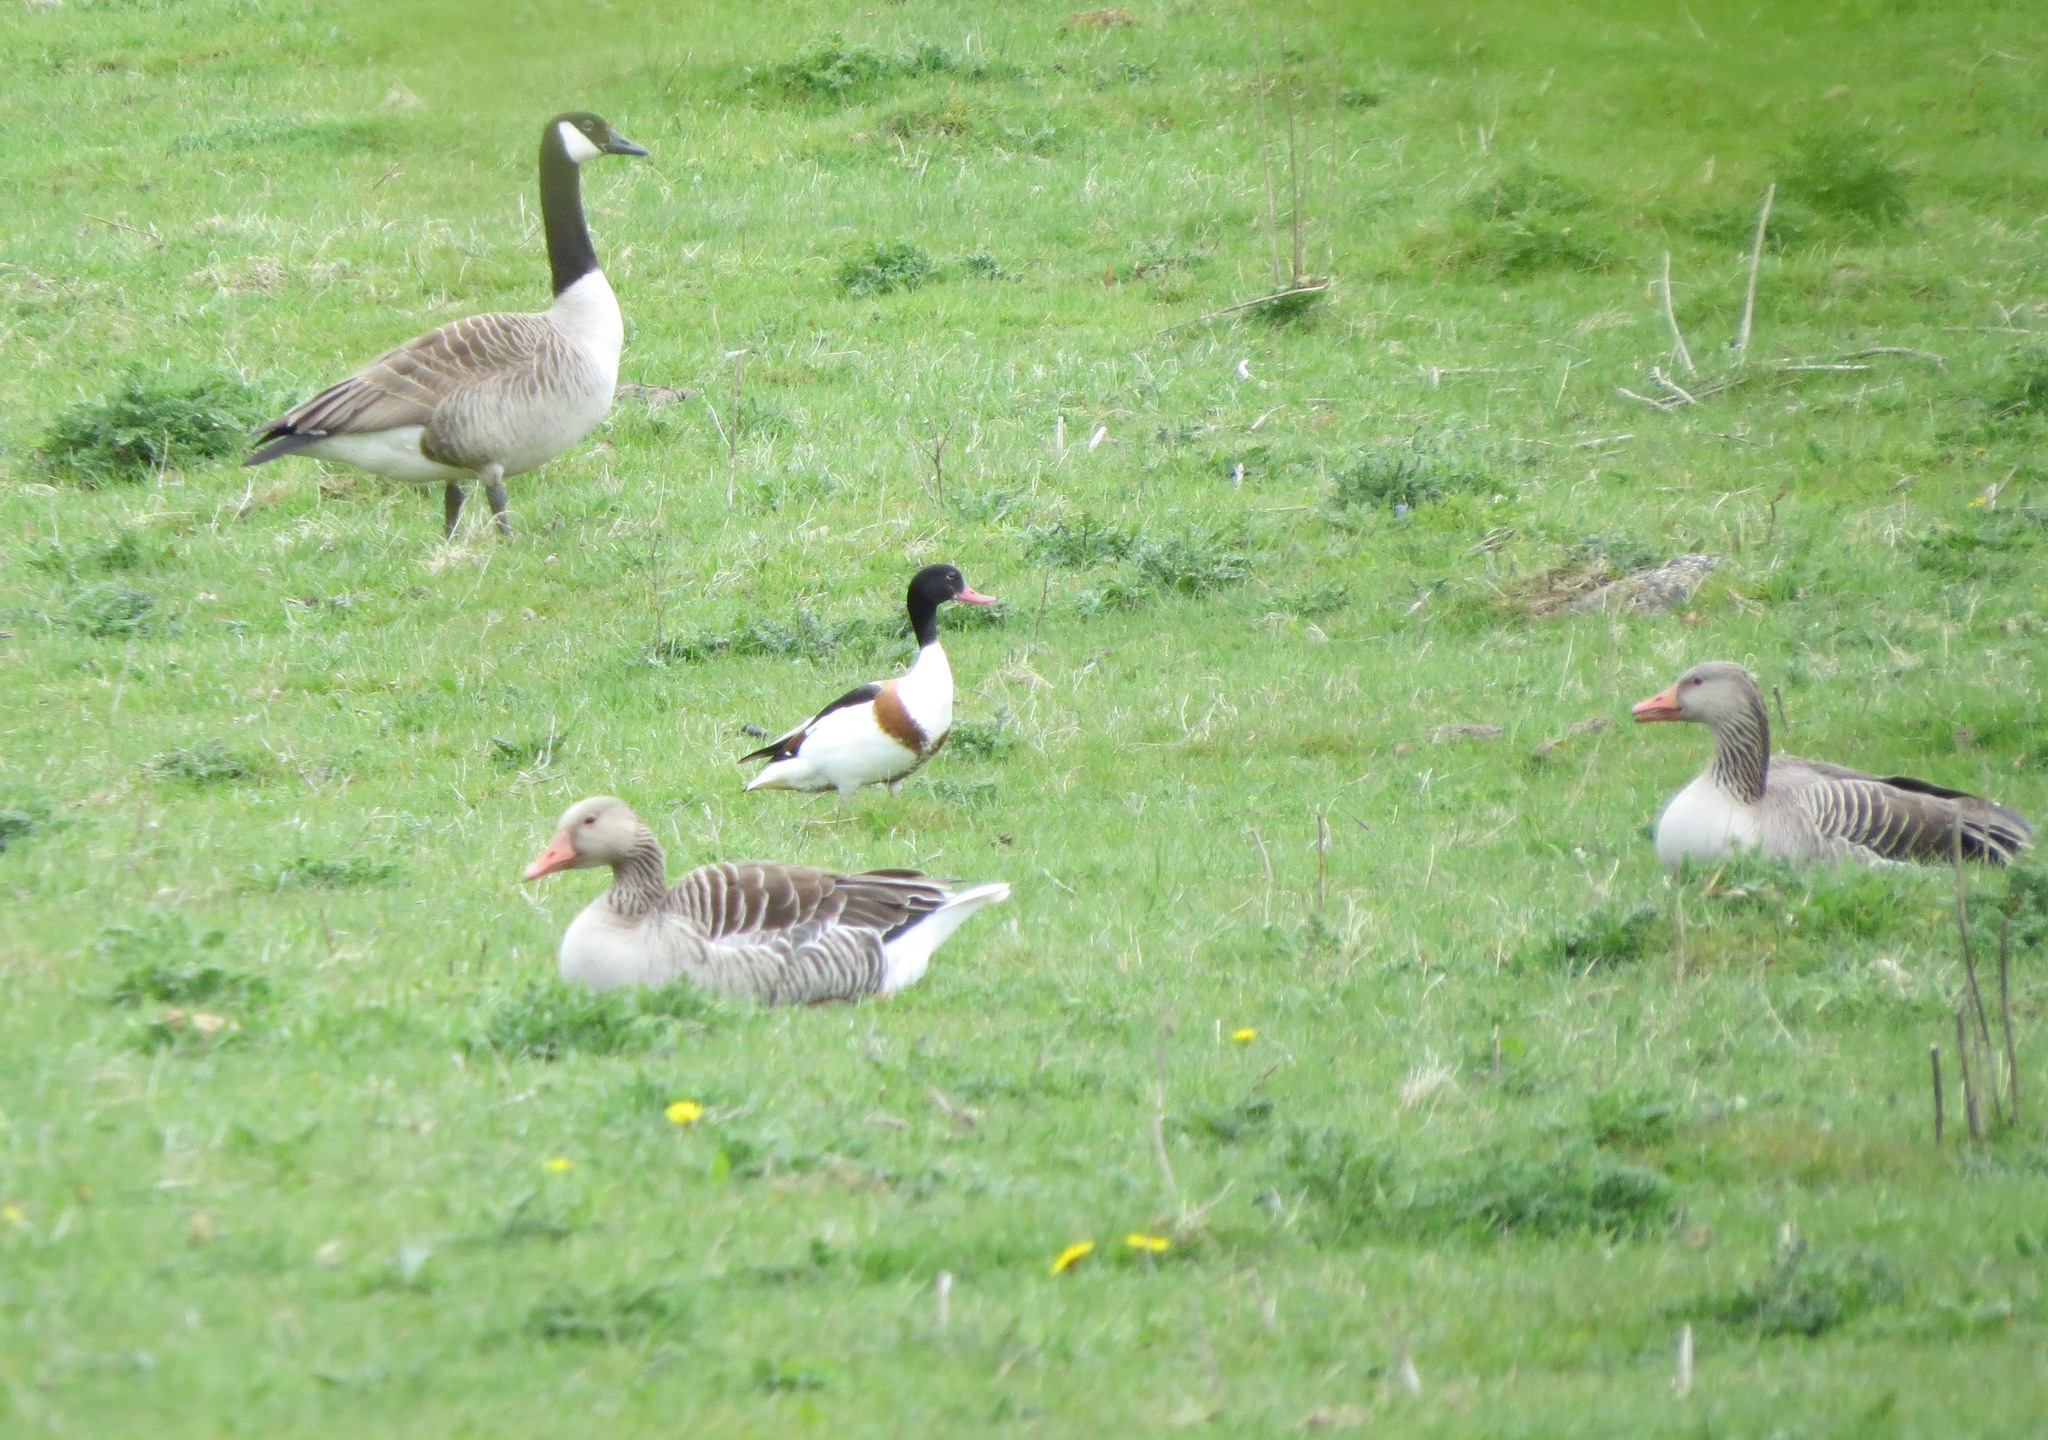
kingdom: Animalia
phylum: Chordata
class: Aves
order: Anseriformes
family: Anatidae
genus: Tadorna
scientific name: Tadorna tadorna
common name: Common shelduck
